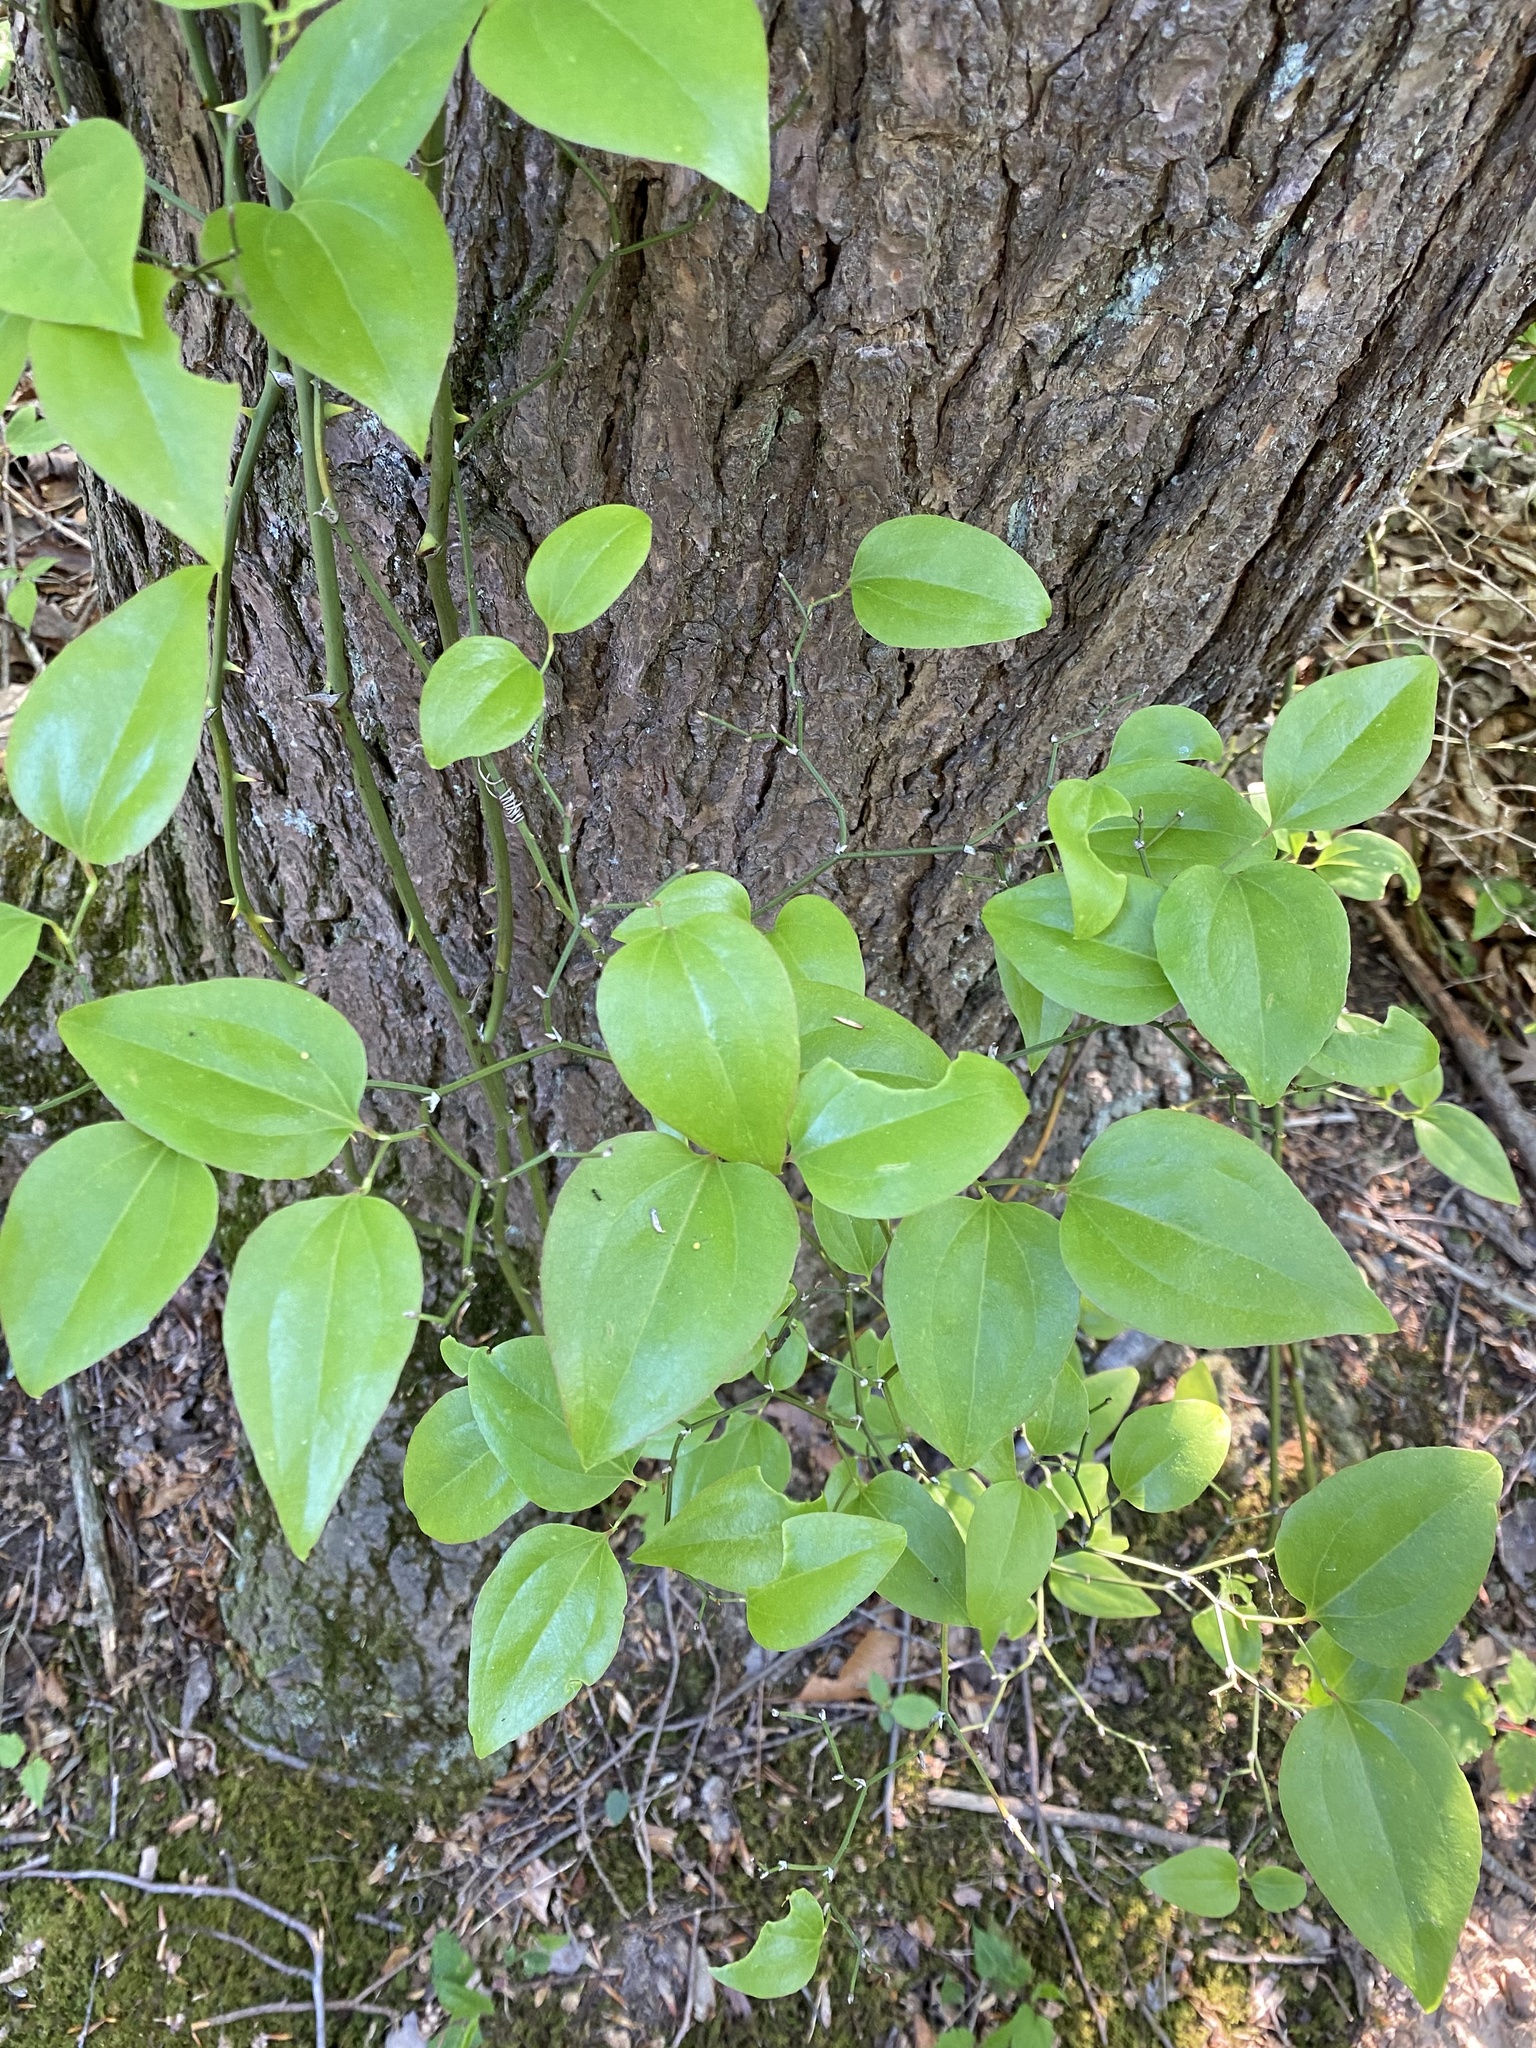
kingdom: Plantae
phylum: Tracheophyta
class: Liliopsida
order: Liliales
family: Smilacaceae
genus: Smilax
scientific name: Smilax rotundifolia
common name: Bullbriar
